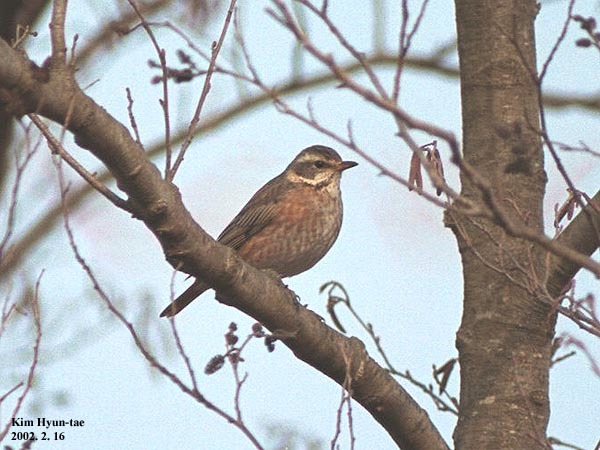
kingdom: Animalia
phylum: Chordata
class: Aves
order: Passeriformes
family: Turdidae
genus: Turdus
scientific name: Turdus naumanni
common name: Naumann's thrush
